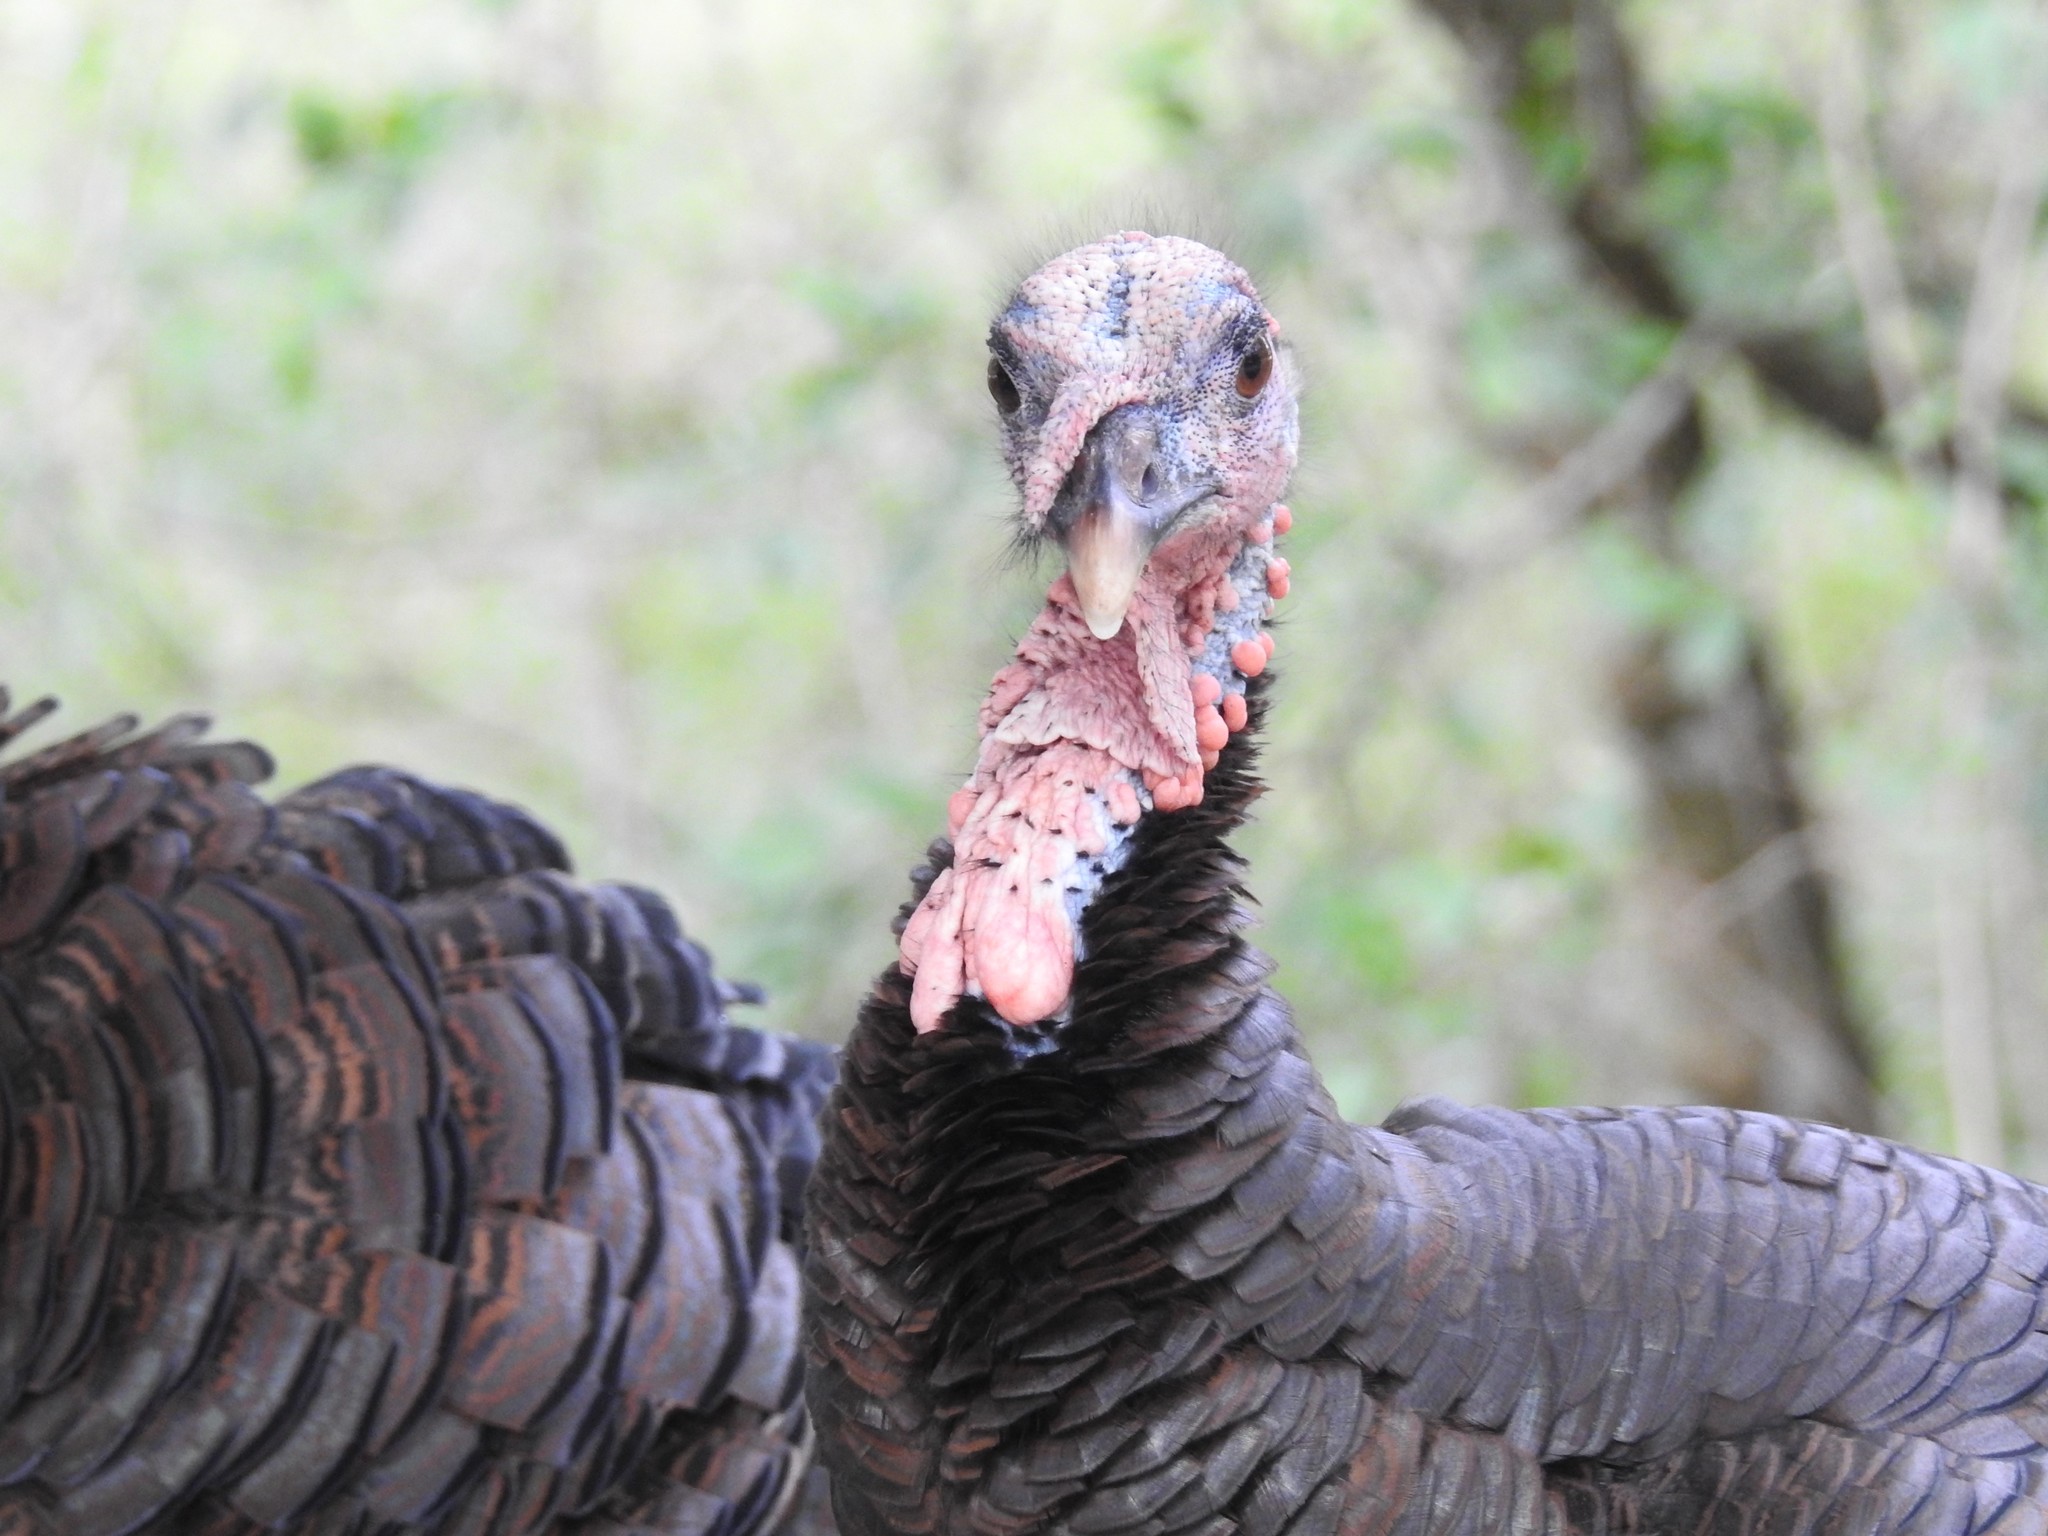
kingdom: Animalia
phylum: Chordata
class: Aves
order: Galliformes
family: Phasianidae
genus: Meleagris
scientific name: Meleagris gallopavo
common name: Wild turkey
